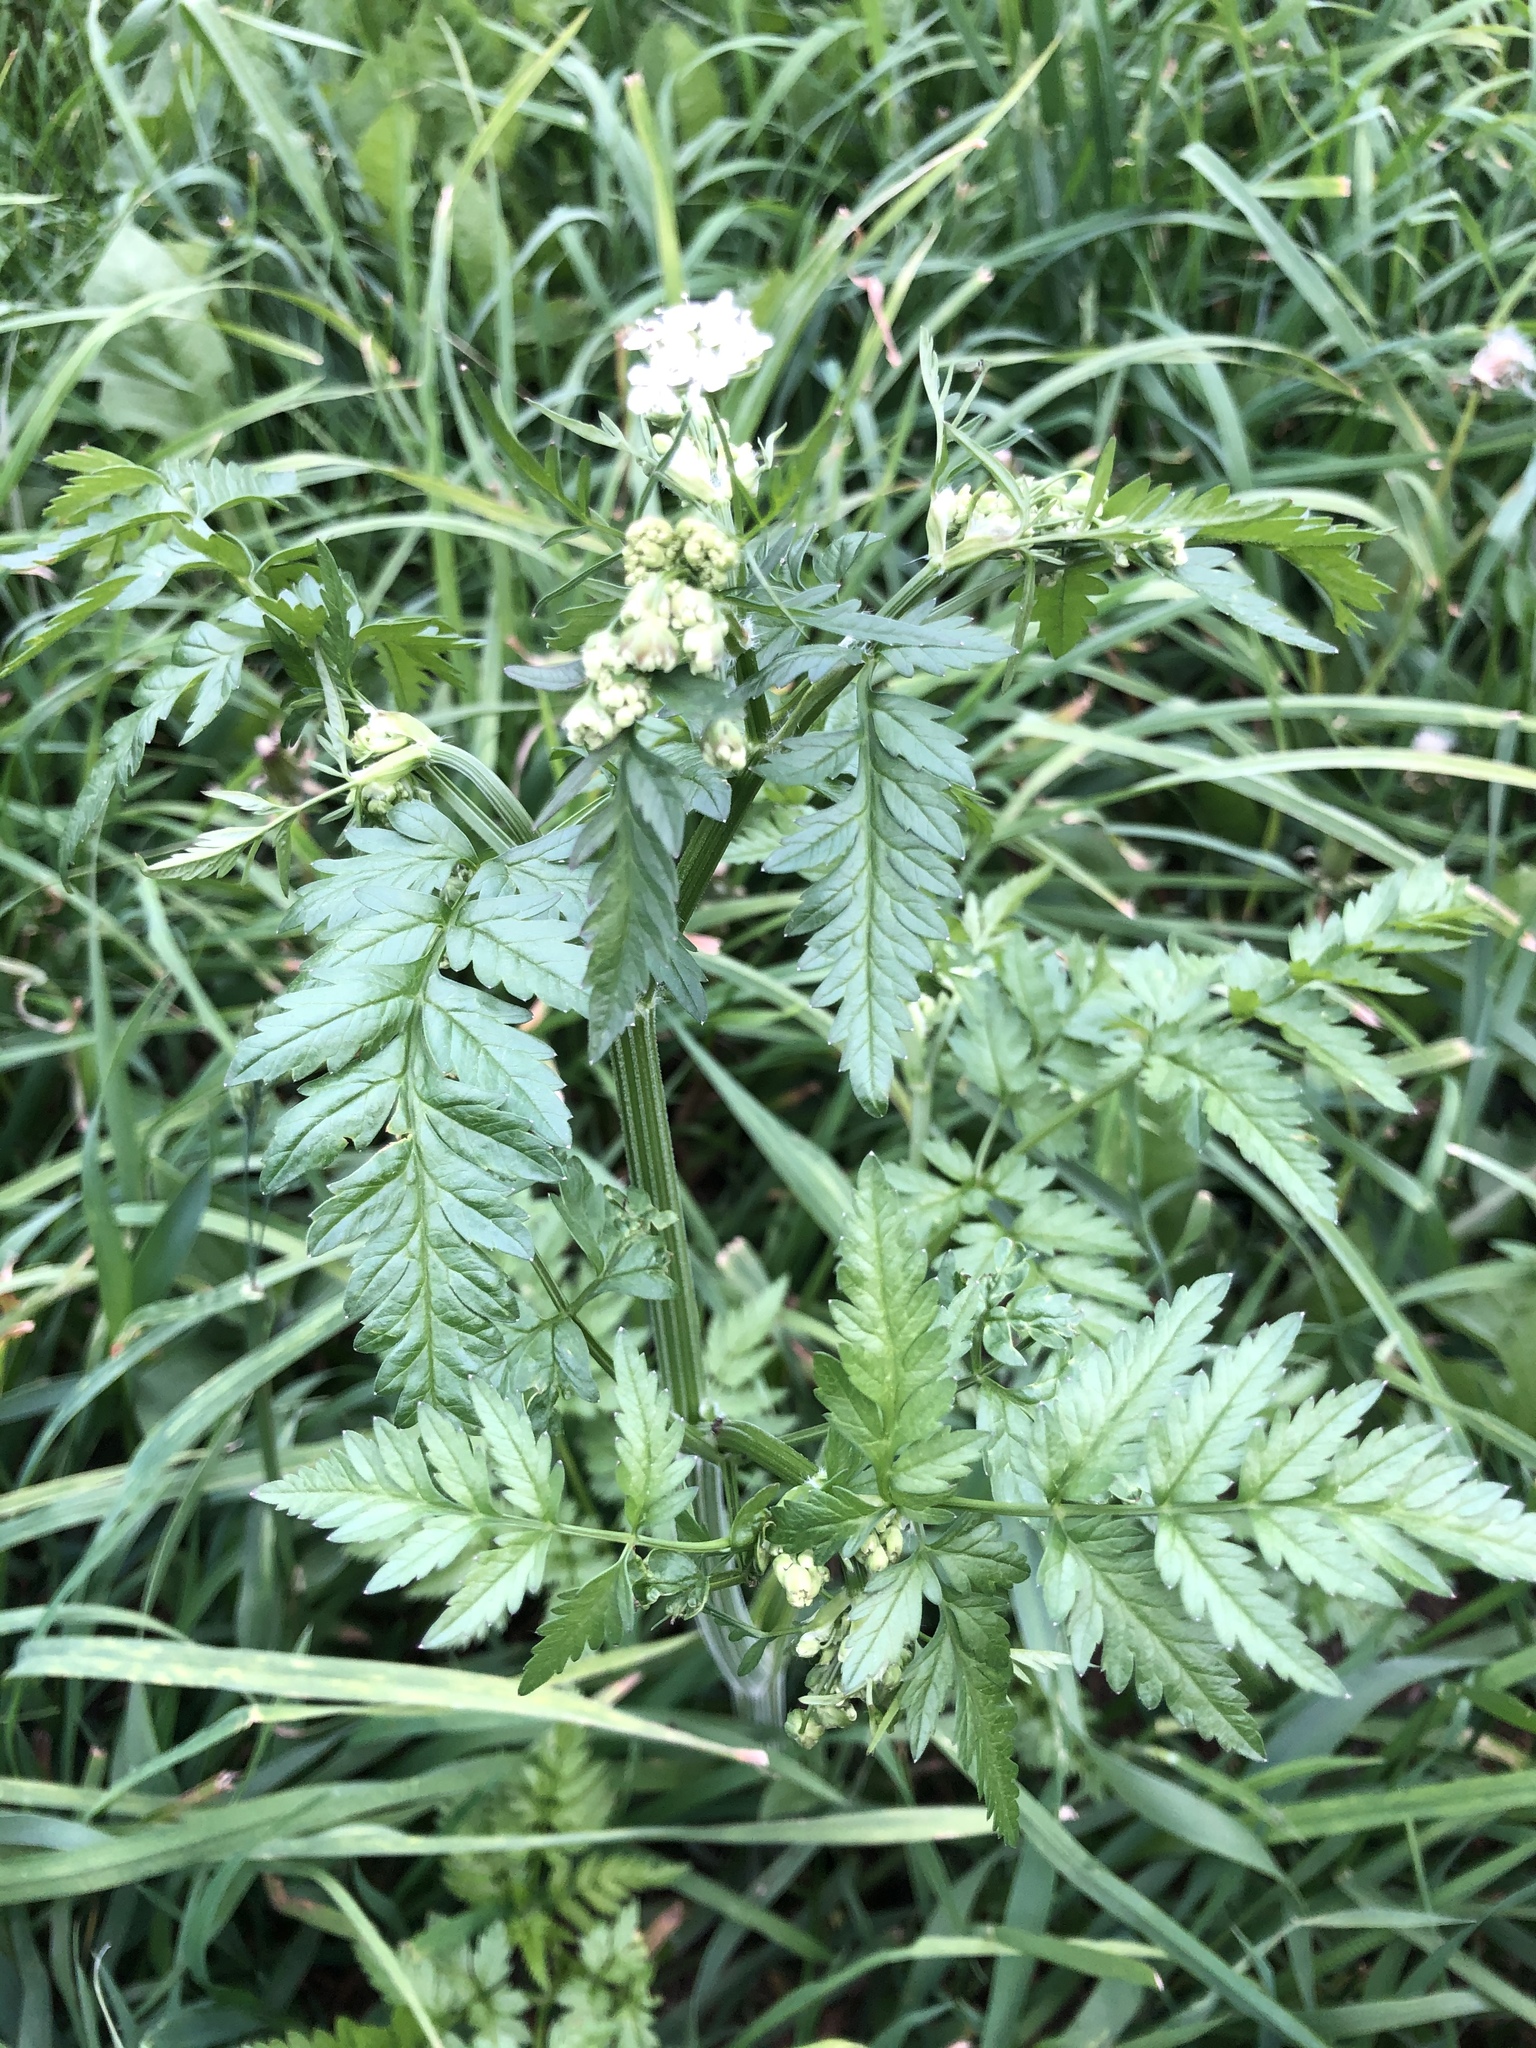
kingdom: Plantae
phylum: Tracheophyta
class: Magnoliopsida
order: Apiales
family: Apiaceae
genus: Anthriscus
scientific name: Anthriscus sylvestris
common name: Cow parsley
